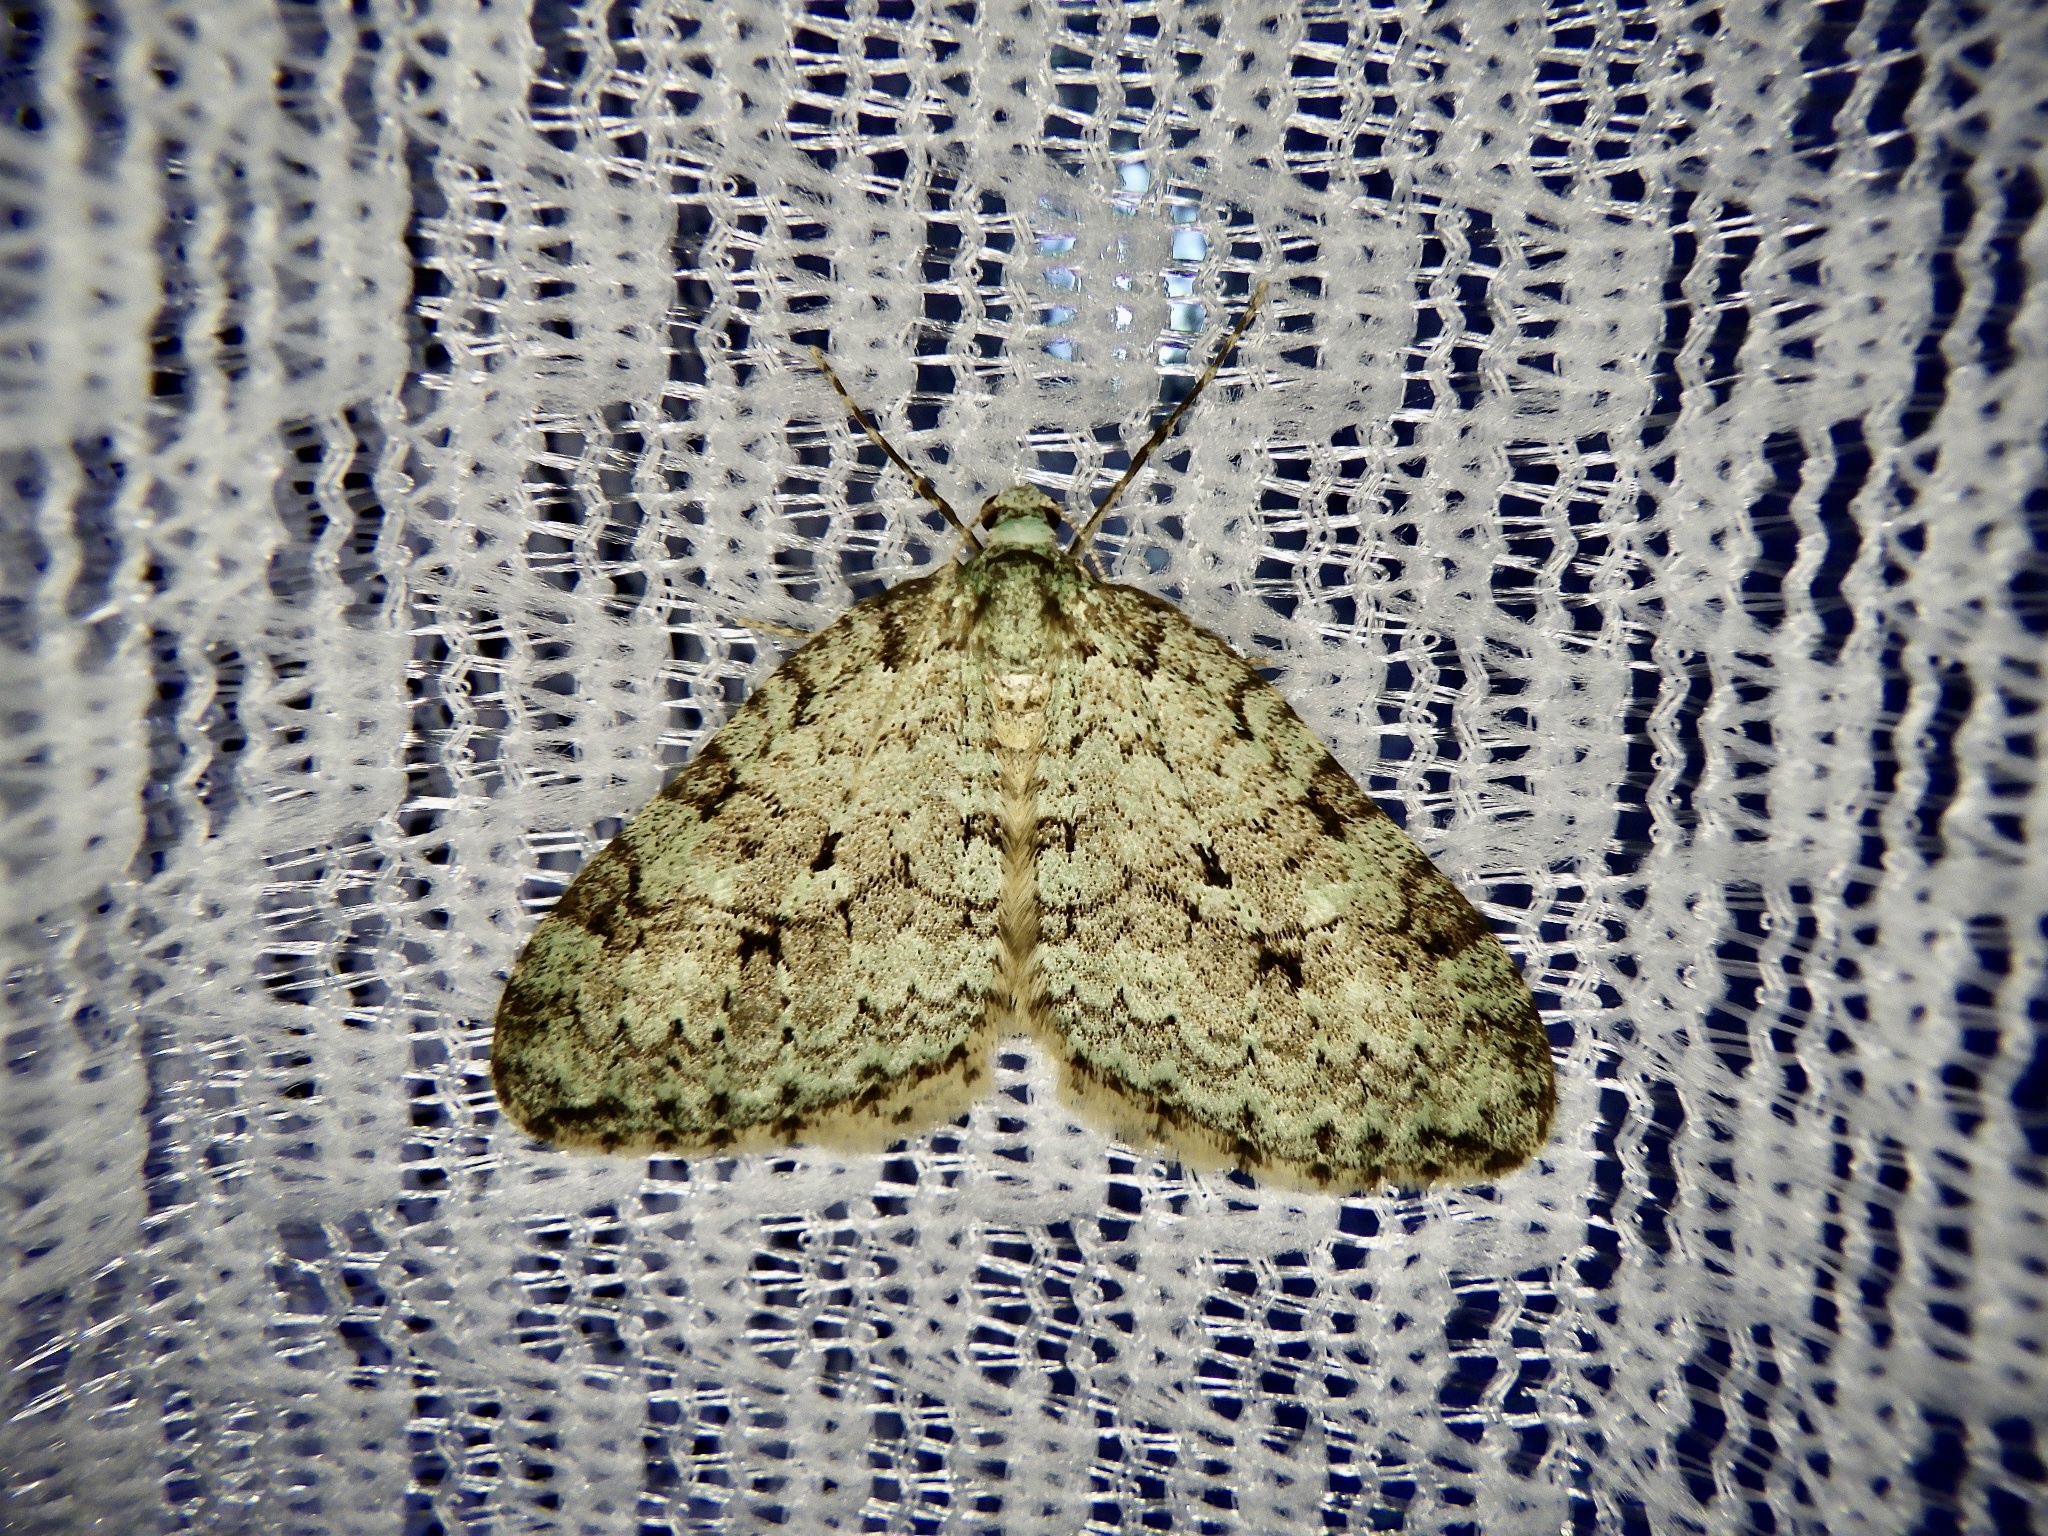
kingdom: Animalia
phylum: Arthropoda
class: Insecta
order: Lepidoptera
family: Geometridae
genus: Epirrita
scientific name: Epirrita viridipurpurescens
